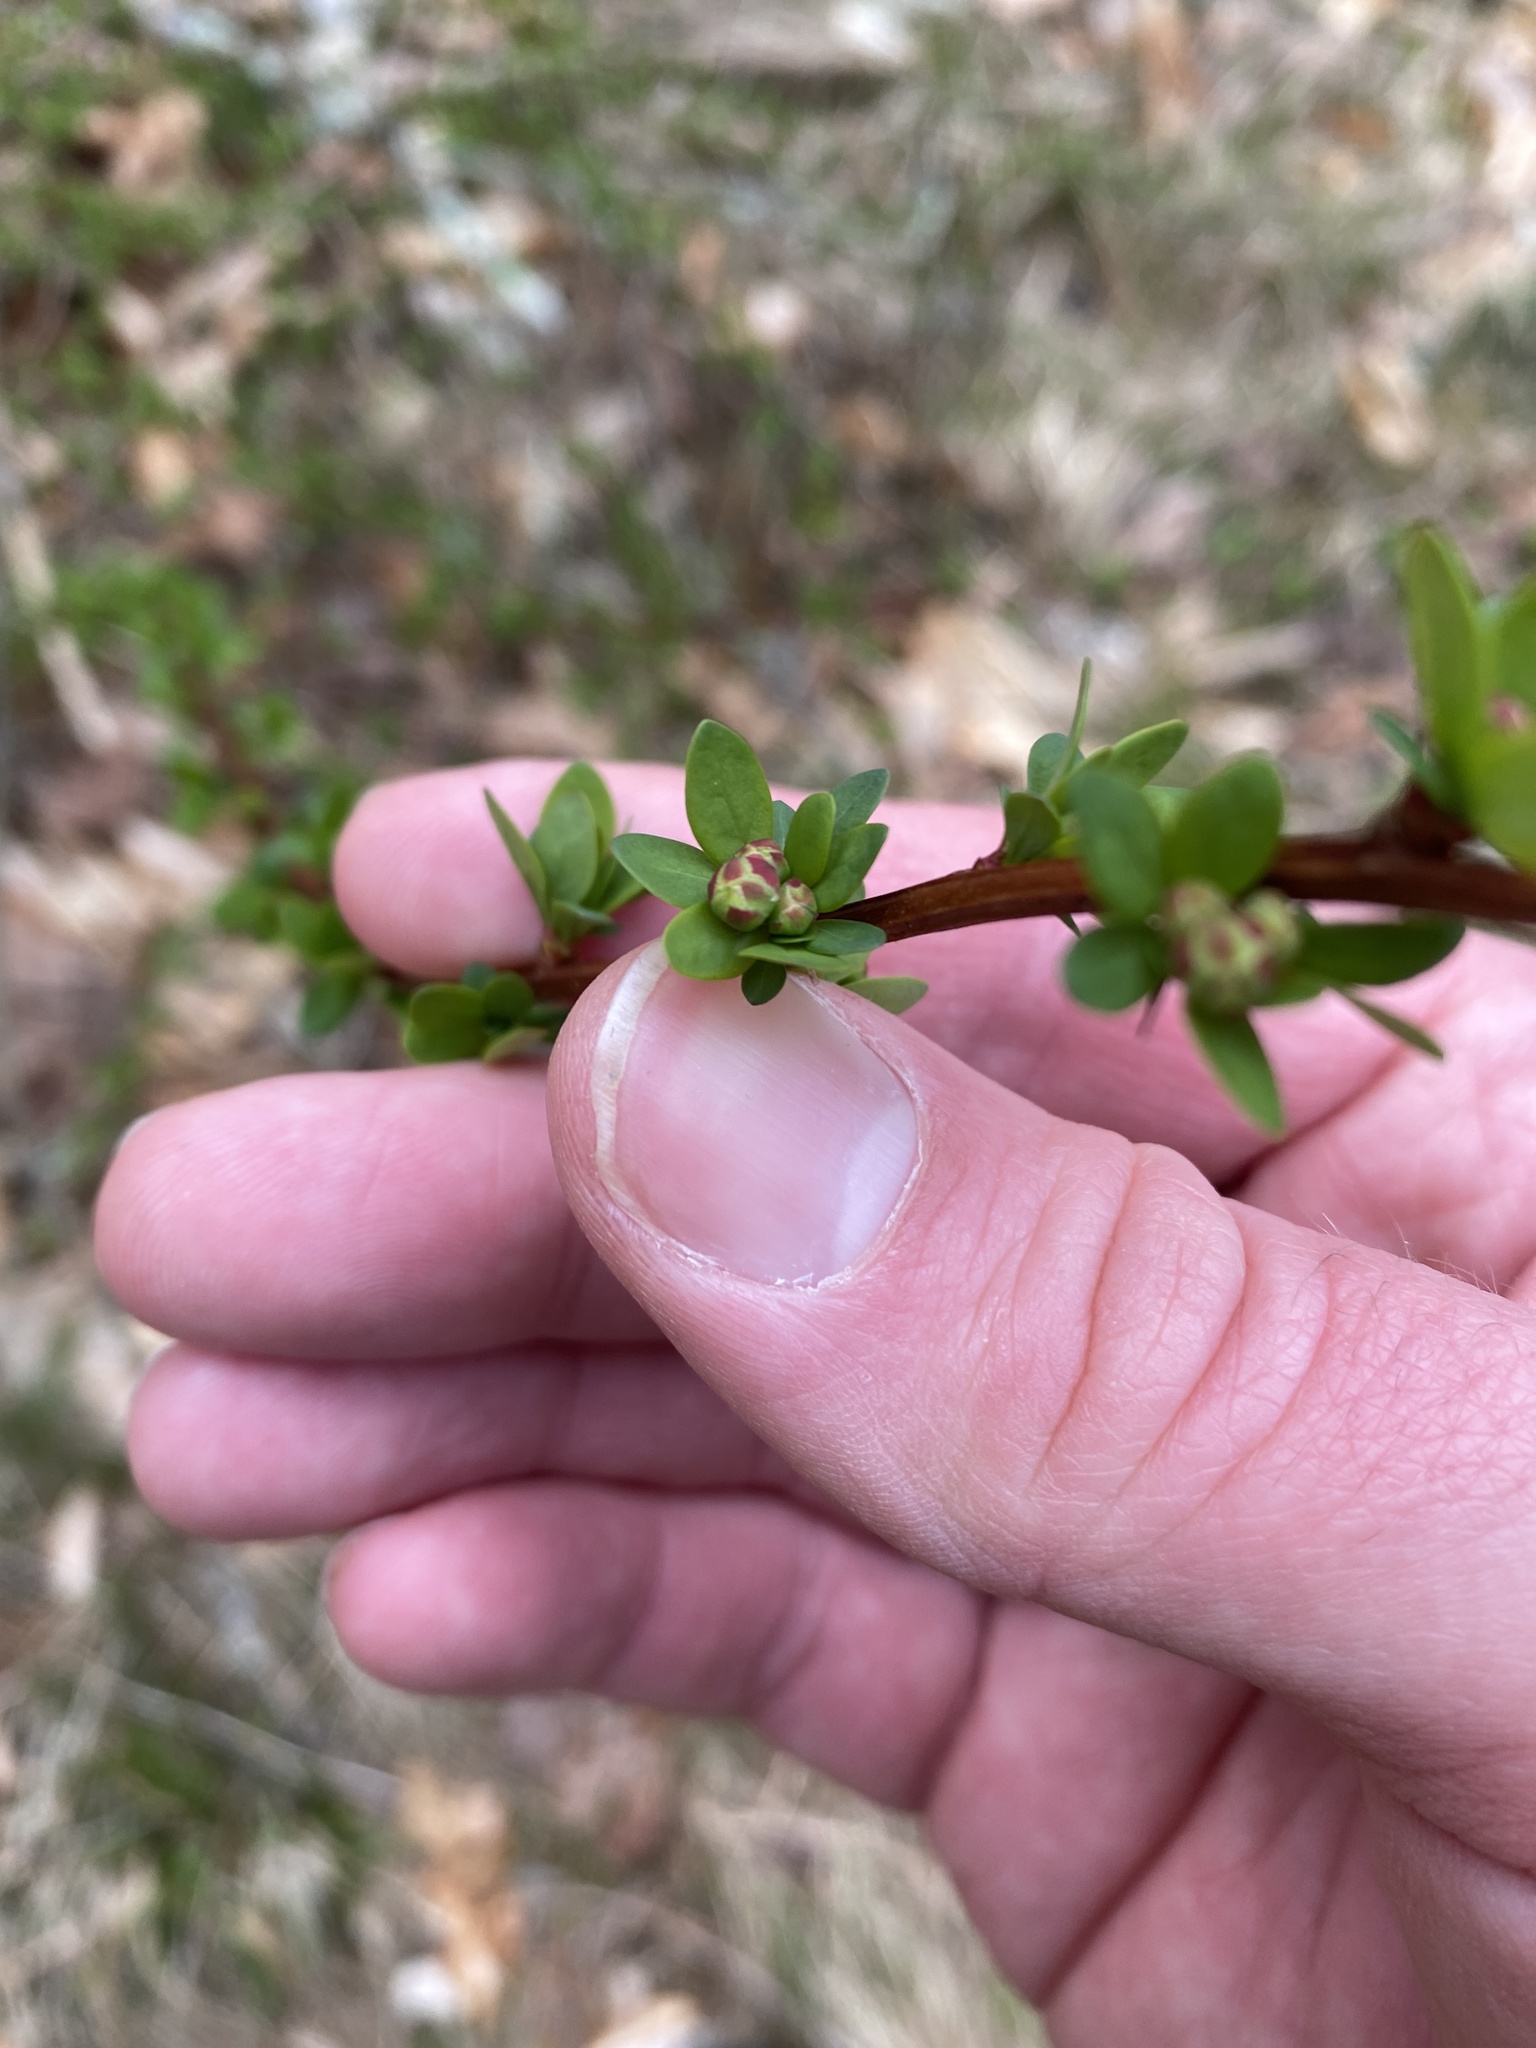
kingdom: Plantae
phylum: Tracheophyta
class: Magnoliopsida
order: Ranunculales
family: Berberidaceae
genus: Berberis
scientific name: Berberis thunbergii
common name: Japanese barberry
